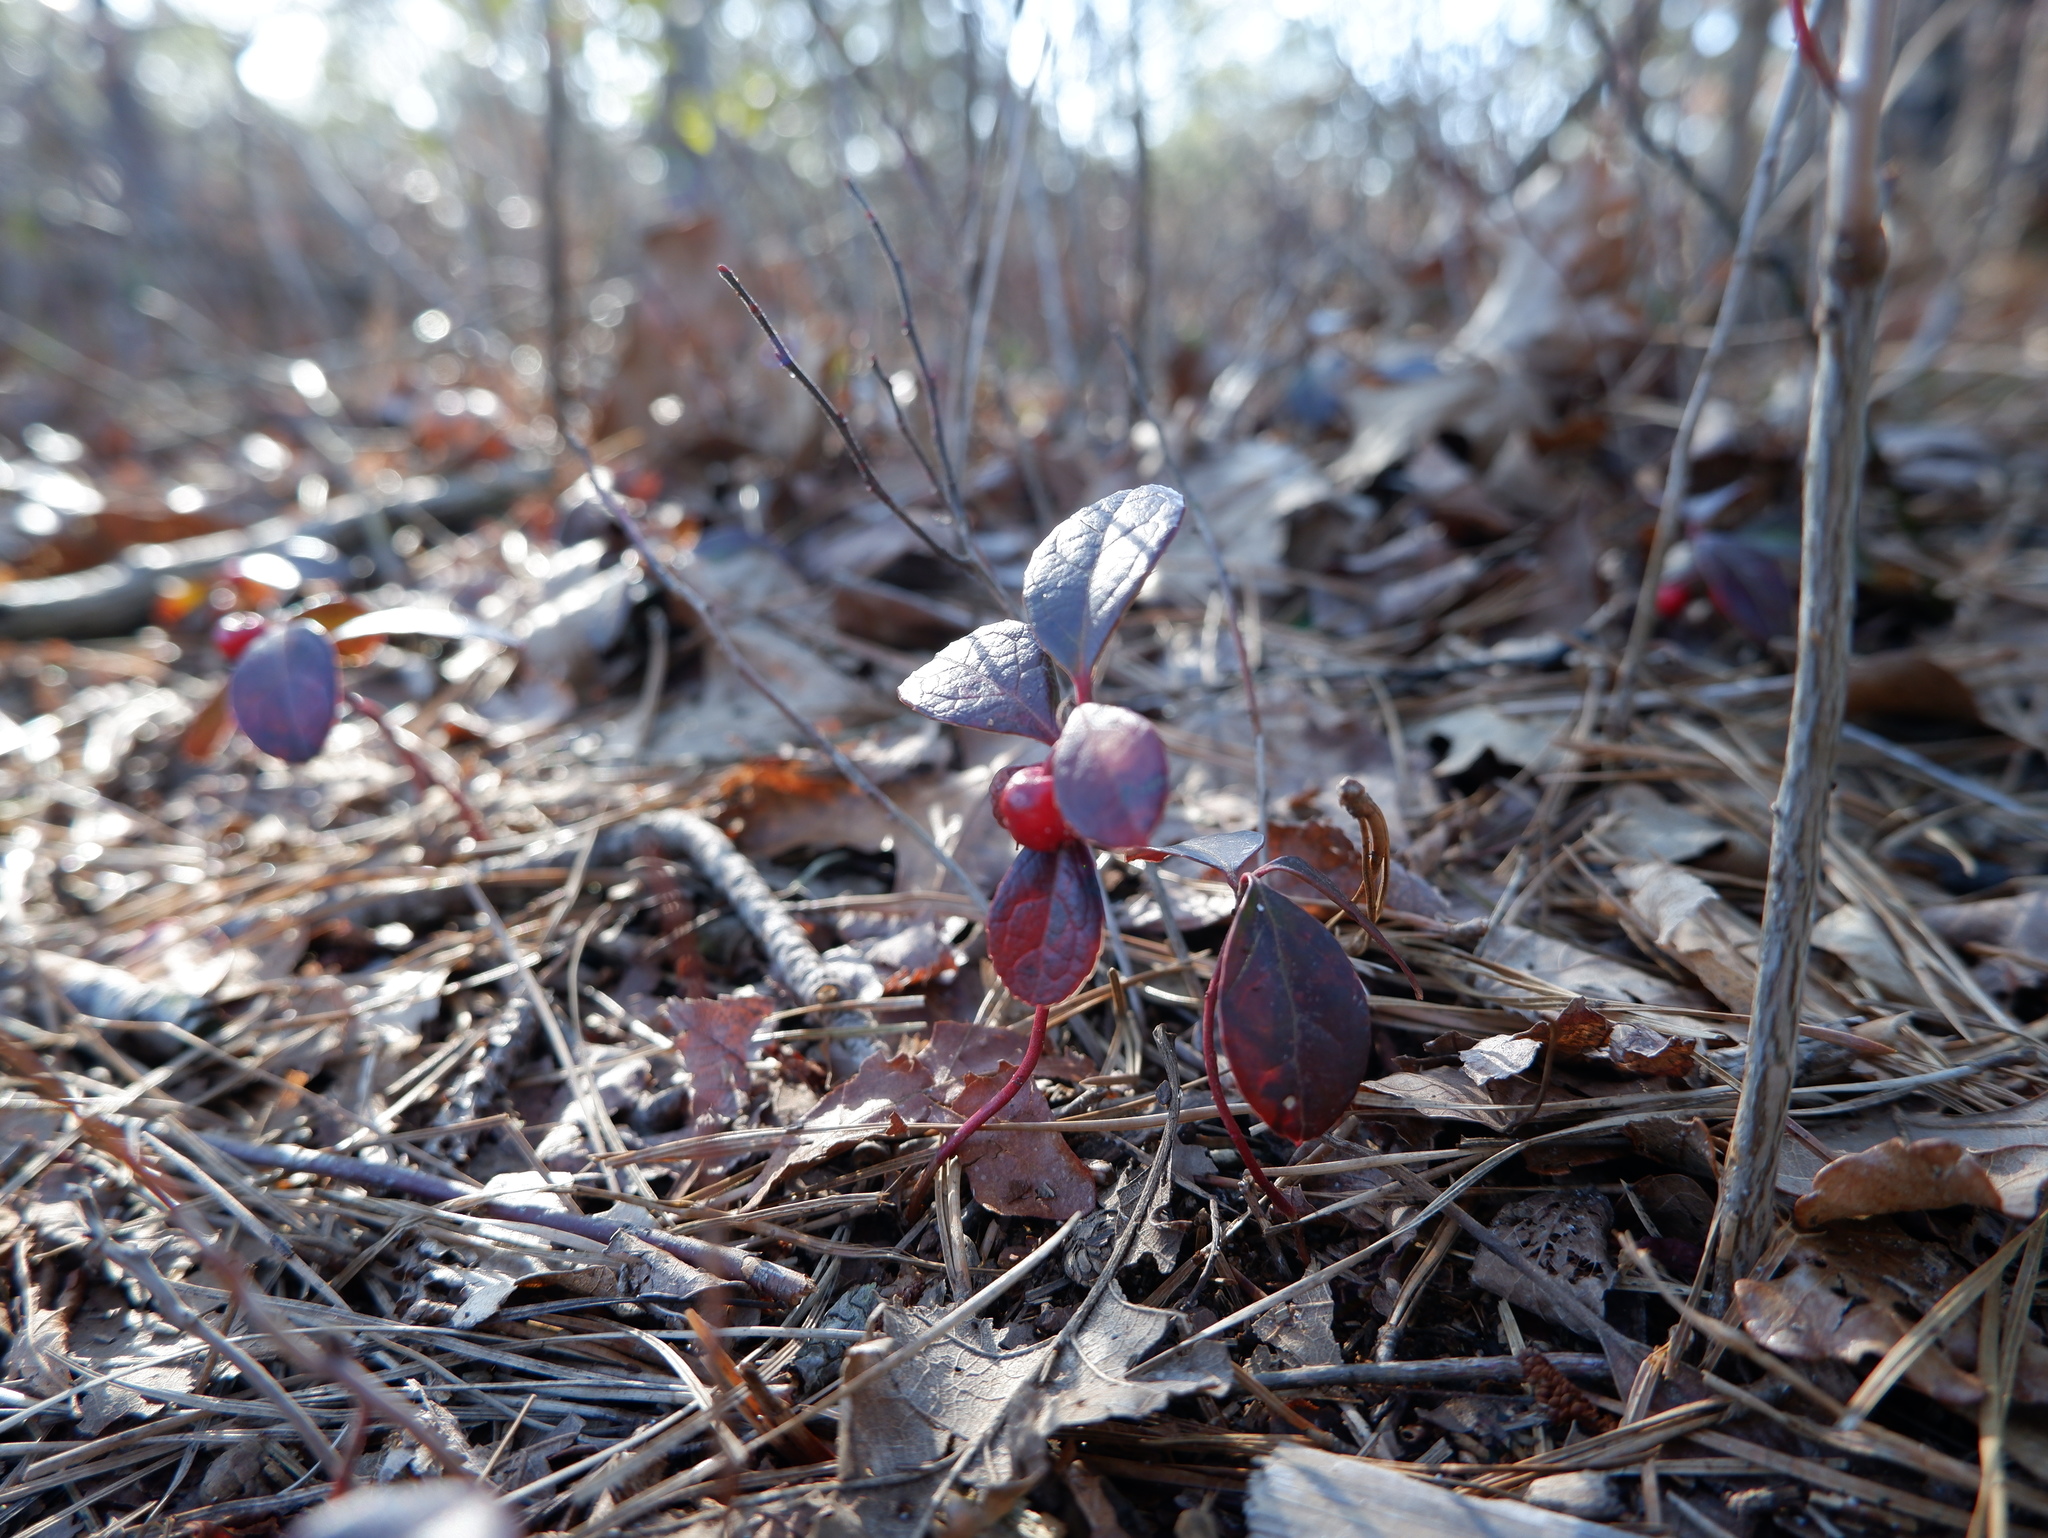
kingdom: Plantae
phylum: Tracheophyta
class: Magnoliopsida
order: Ericales
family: Ericaceae
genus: Gaultheria
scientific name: Gaultheria procumbens
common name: Checkerberry
